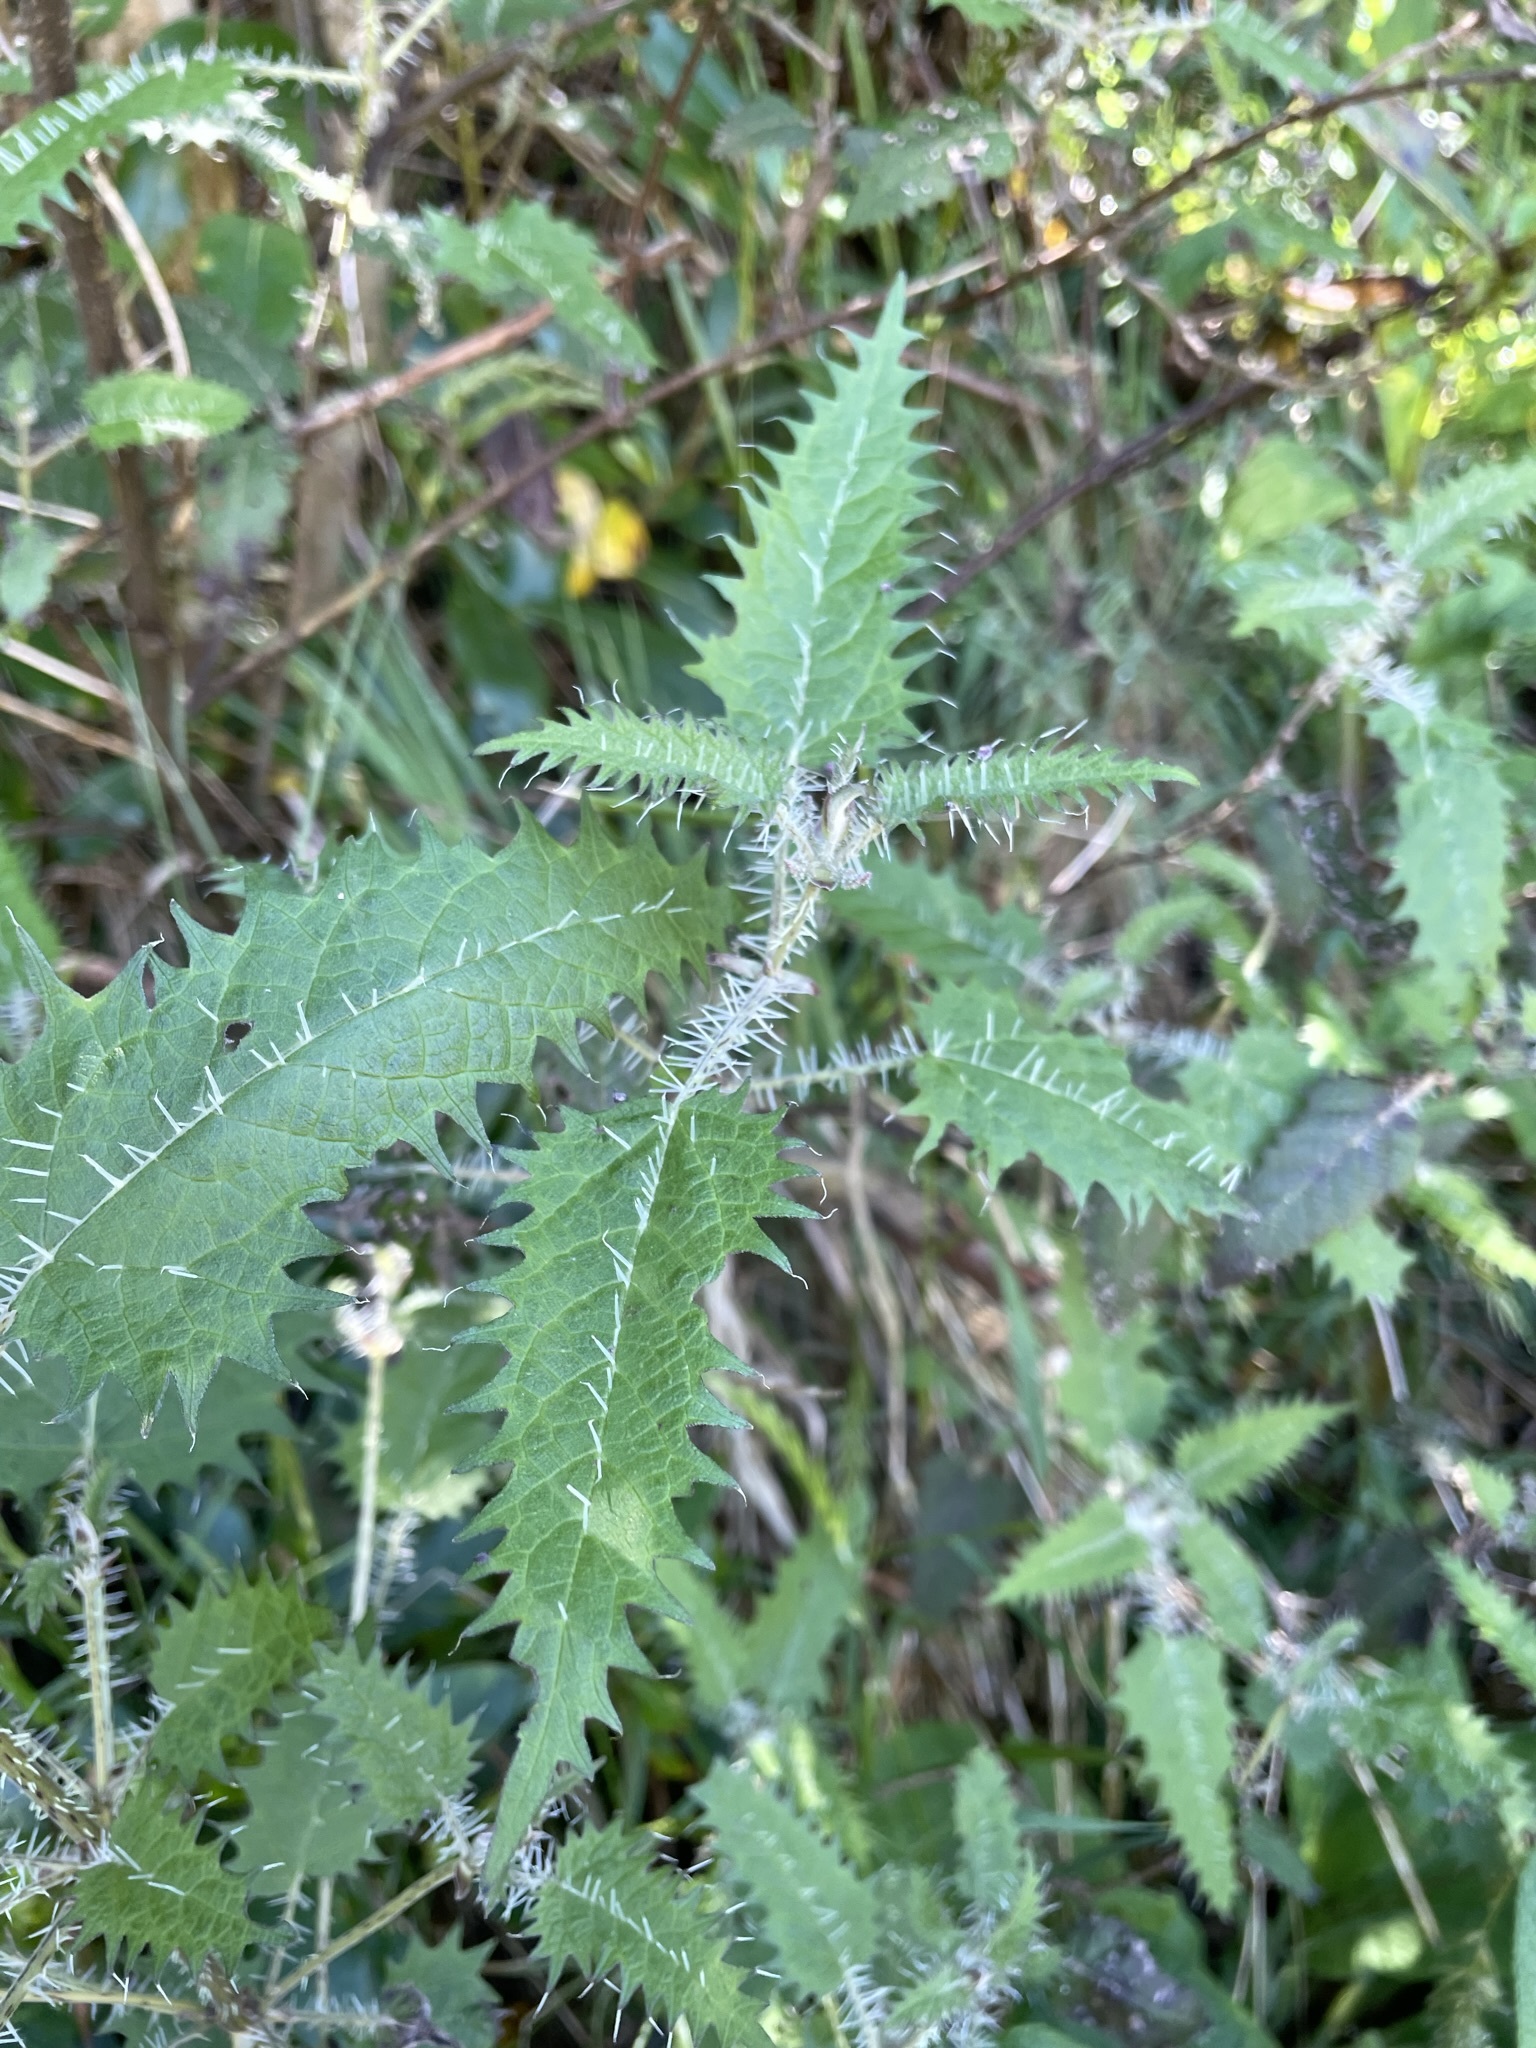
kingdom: Plantae
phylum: Tracheophyta
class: Magnoliopsida
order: Rosales
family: Urticaceae
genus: Urtica
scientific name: Urtica ferox
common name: Tree nettle
